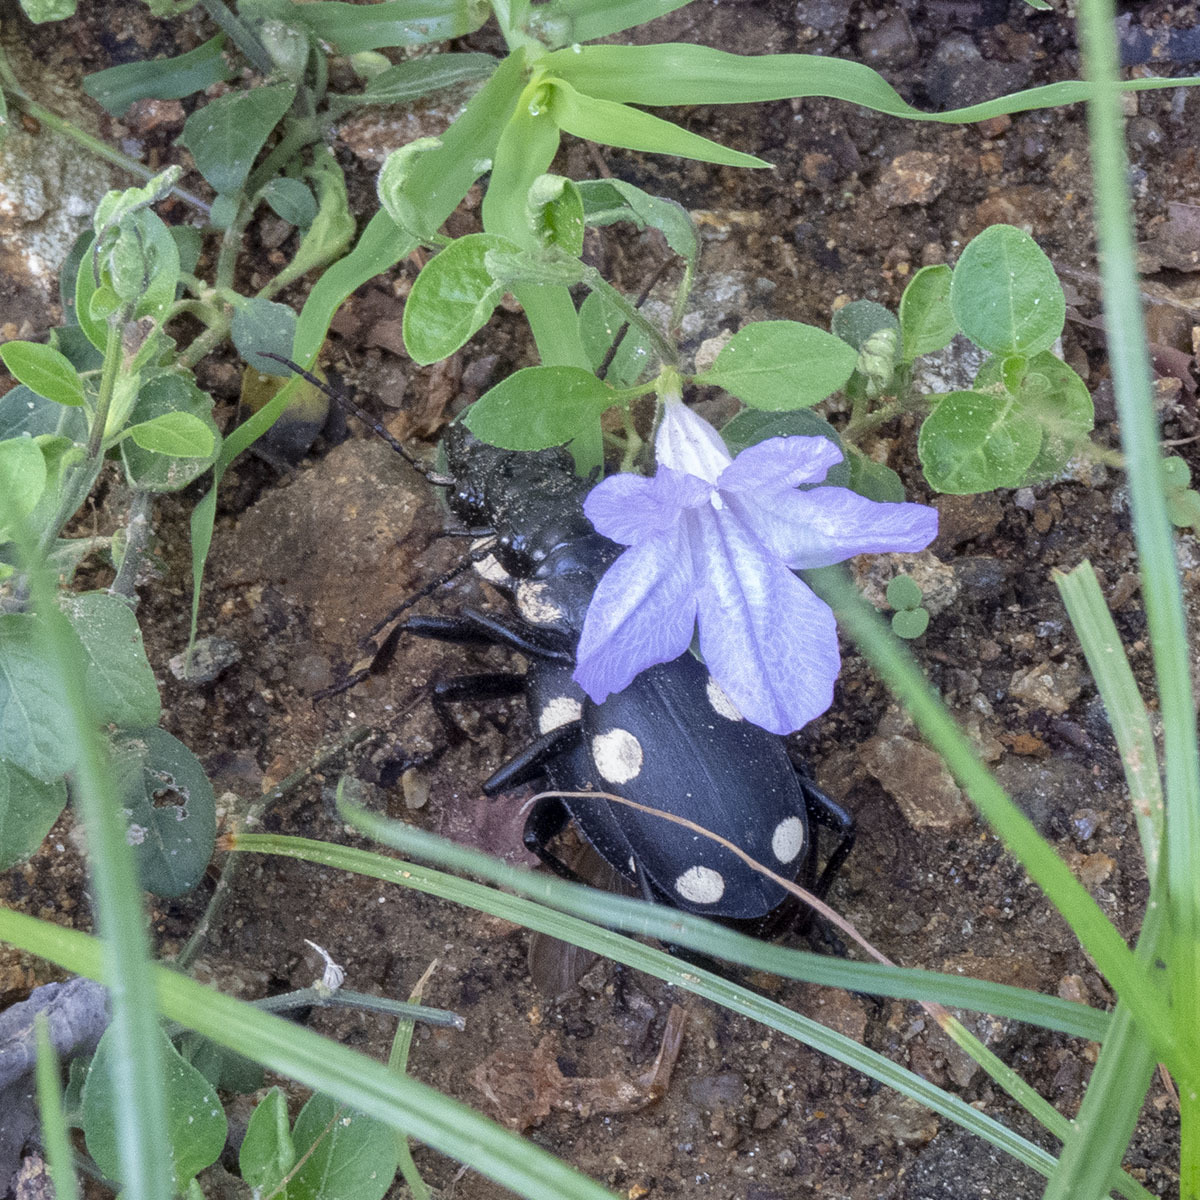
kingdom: Animalia
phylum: Arthropoda
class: Insecta
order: Coleoptera
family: Carabidae
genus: Anthia
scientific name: Anthia sexguttata
